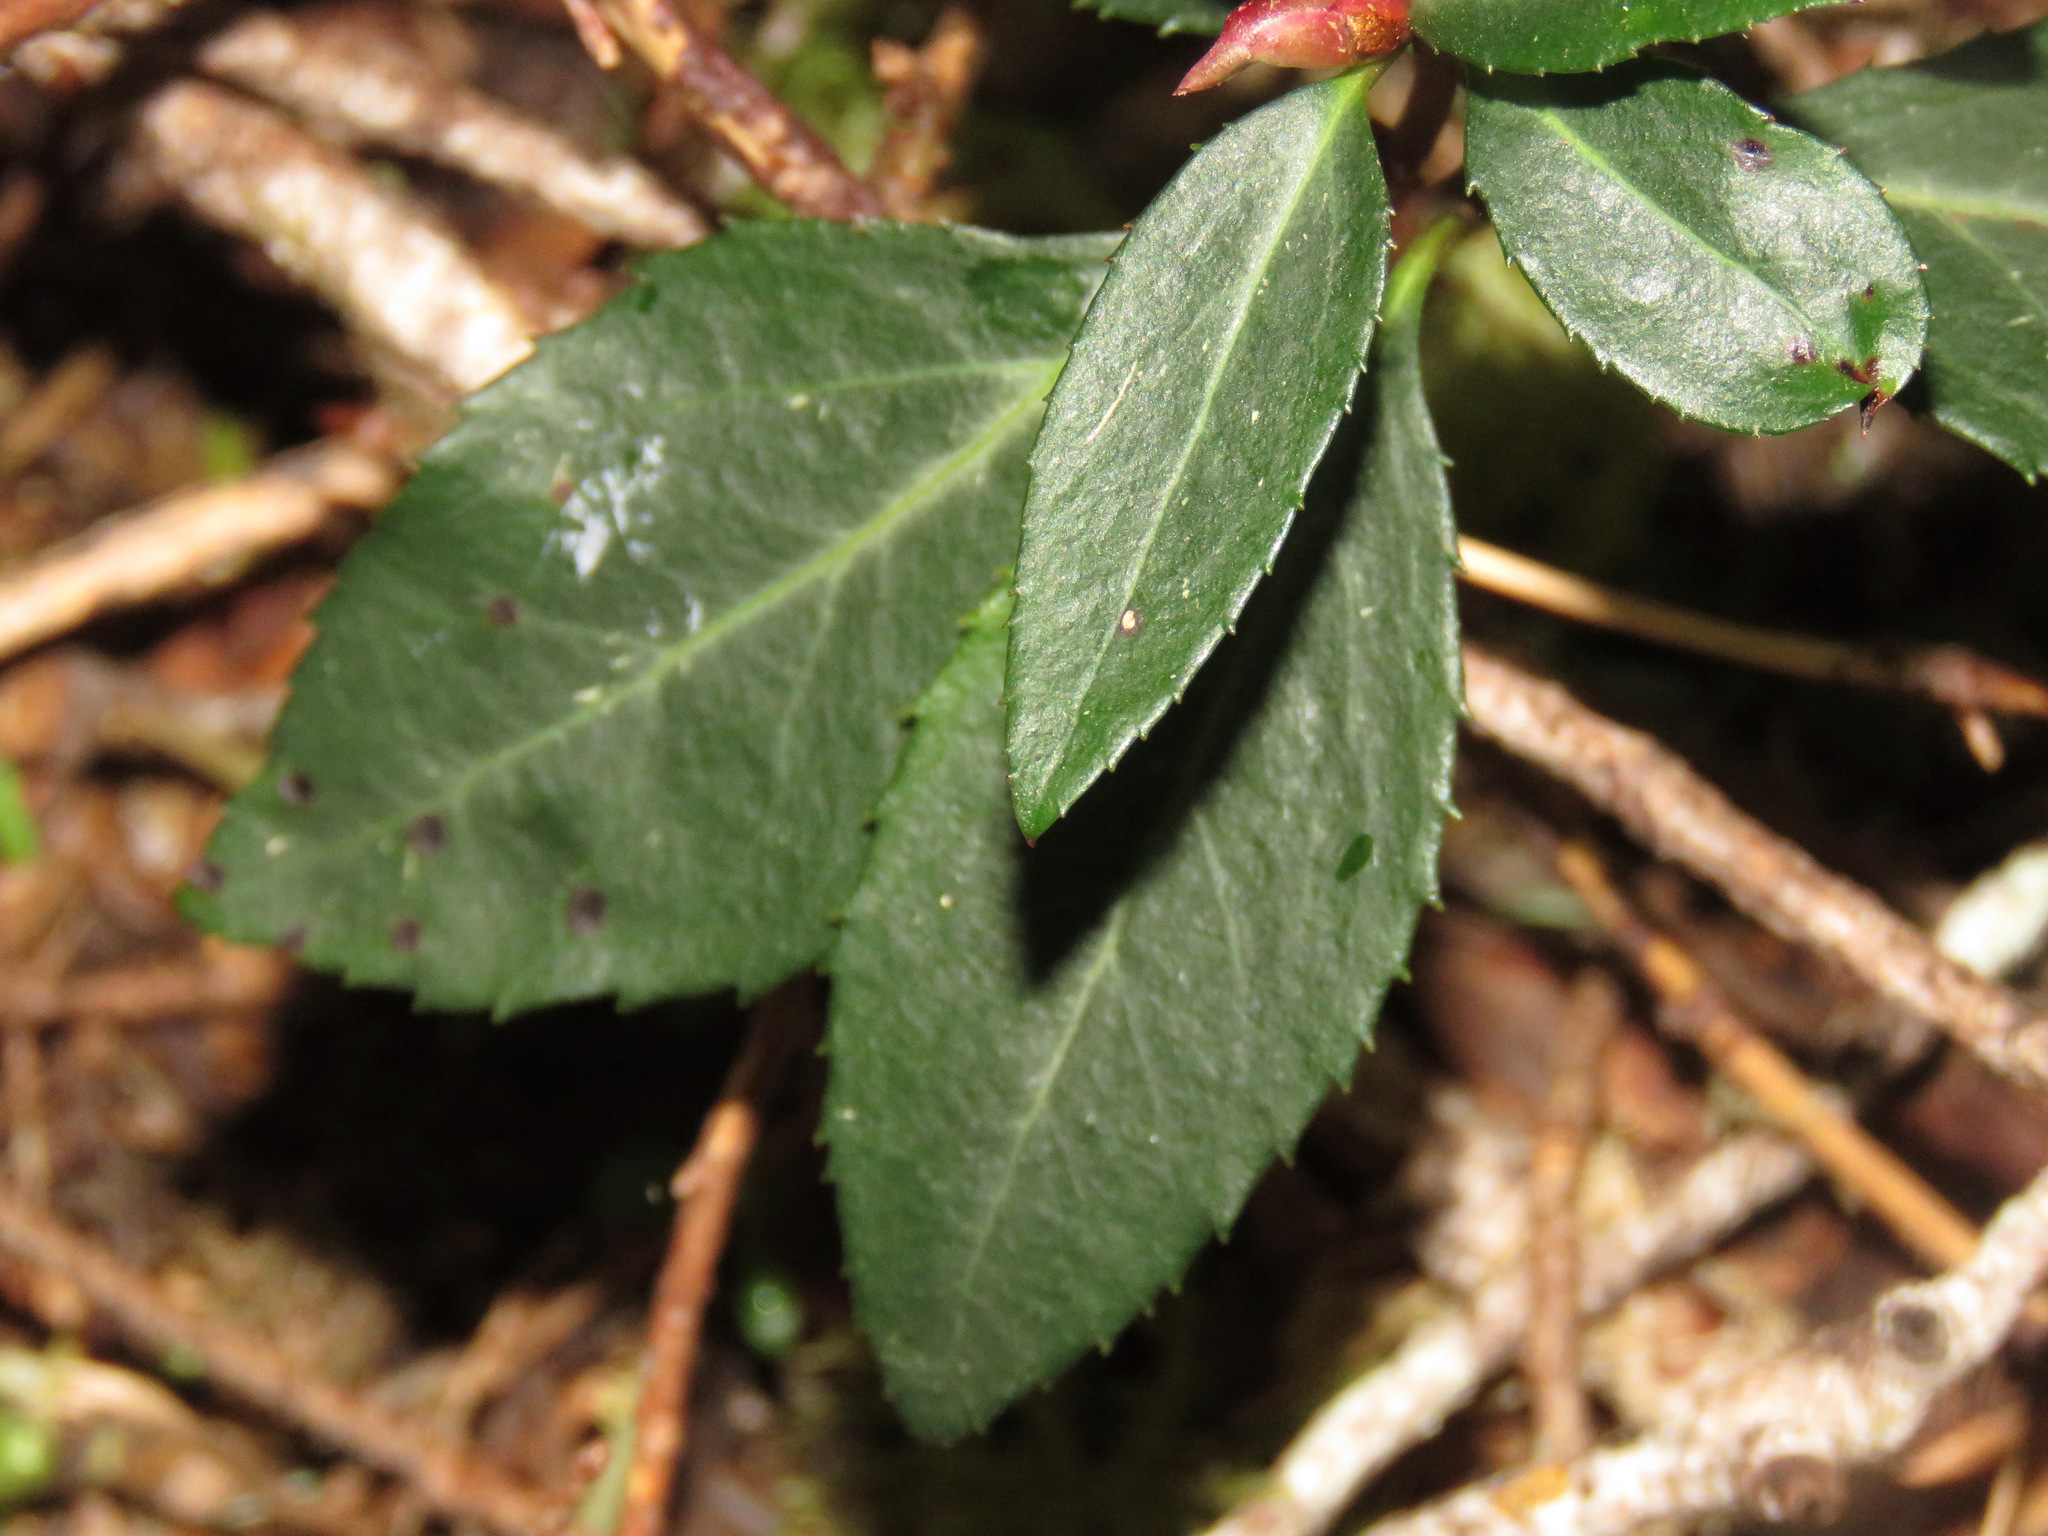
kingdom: Plantae
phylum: Tracheophyta
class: Magnoliopsida
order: Ericales
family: Ericaceae
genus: Chimaphila
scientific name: Chimaphila menziesii
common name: Menzies' pipsissewa
